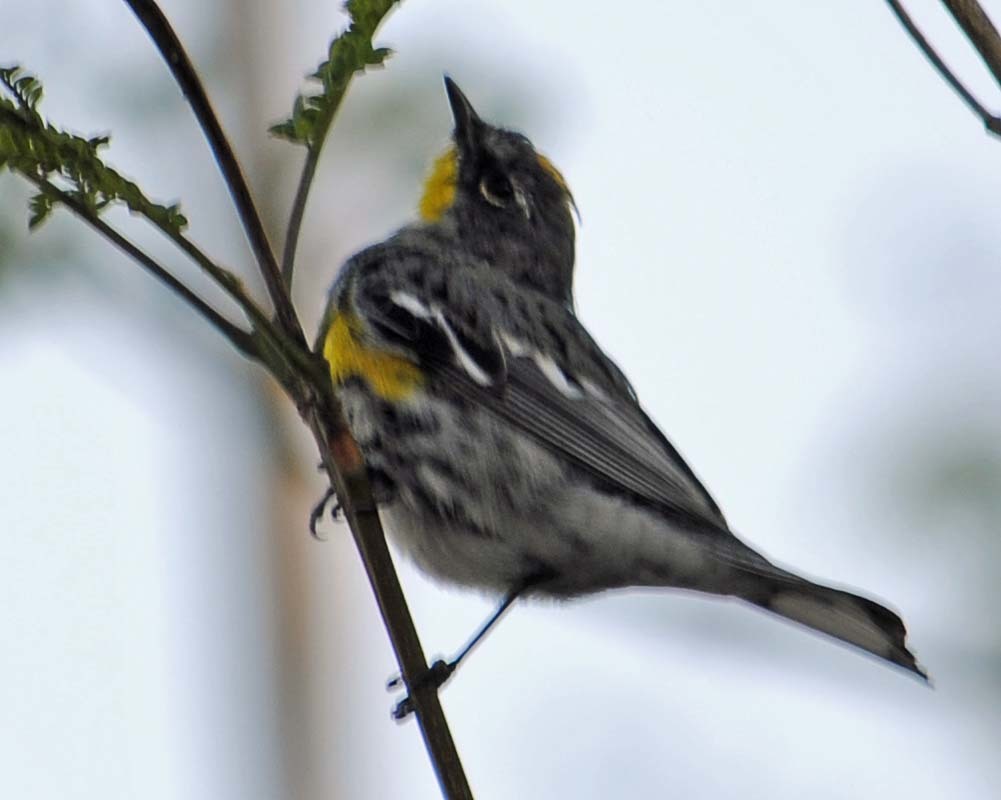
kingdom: Animalia
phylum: Chordata
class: Aves
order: Passeriformes
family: Parulidae
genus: Setophaga
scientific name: Setophaga auduboni
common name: Audubon's warbler
